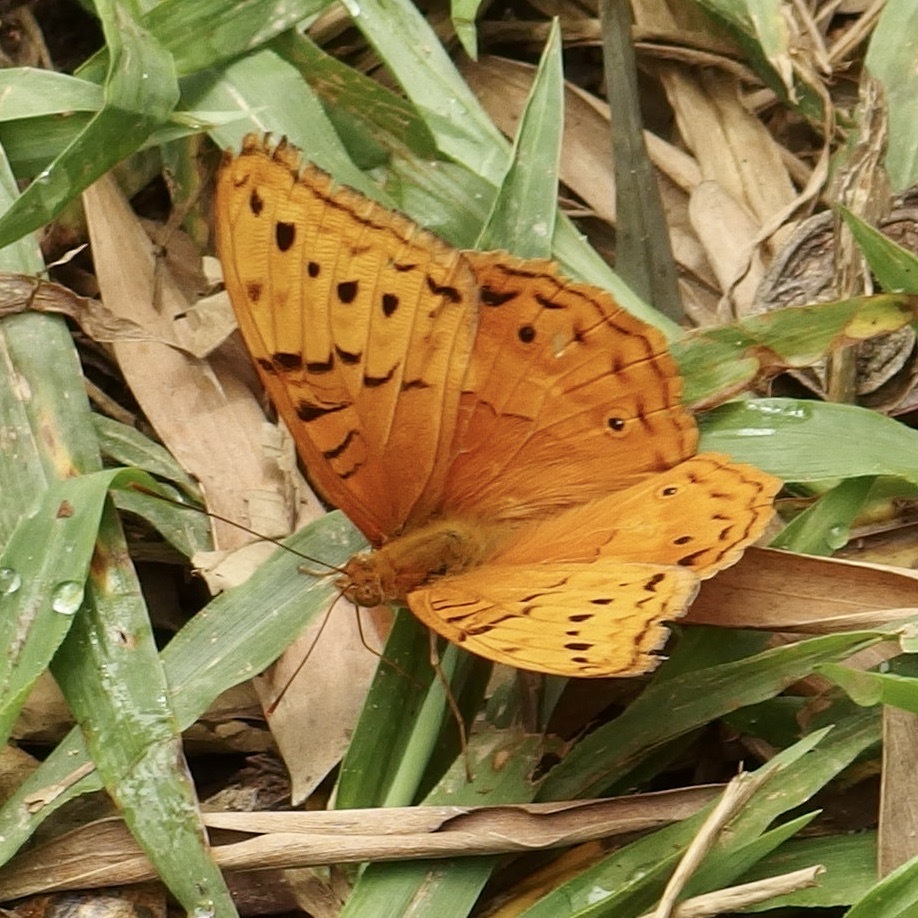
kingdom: Animalia
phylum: Arthropoda
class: Insecta
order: Lepidoptera
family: Nymphalidae
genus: Vindula
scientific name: Vindula arsinoe
